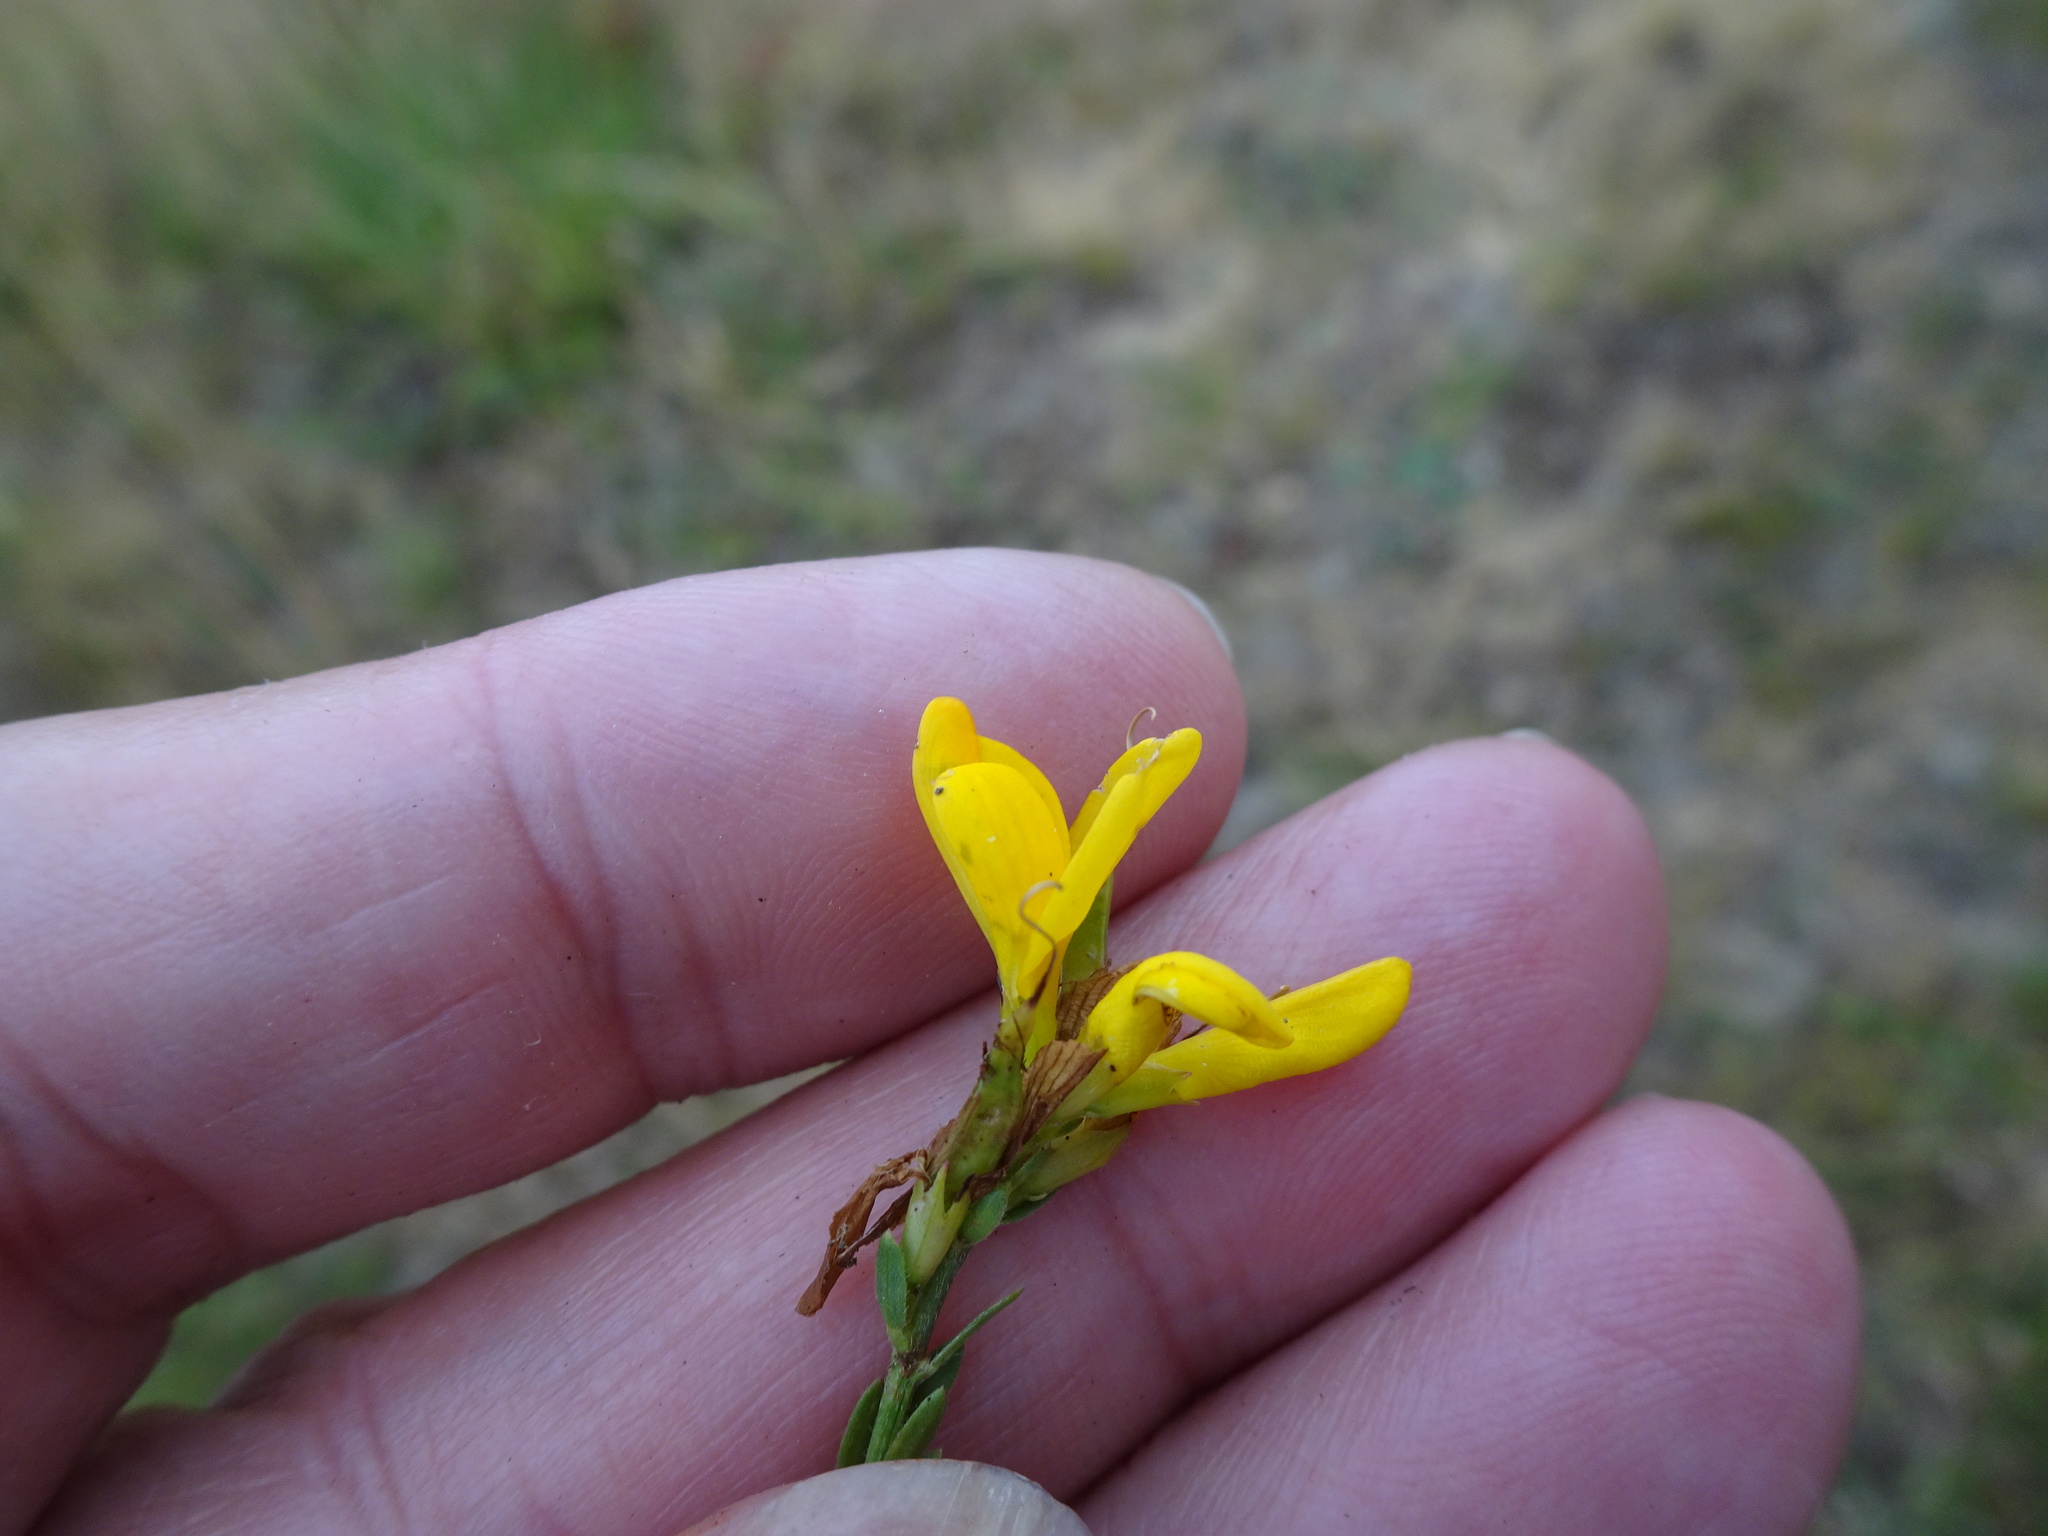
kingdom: Plantae
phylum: Tracheophyta
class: Magnoliopsida
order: Fabales
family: Fabaceae
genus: Genista
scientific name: Genista tinctoria
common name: Dyer's greenweed
